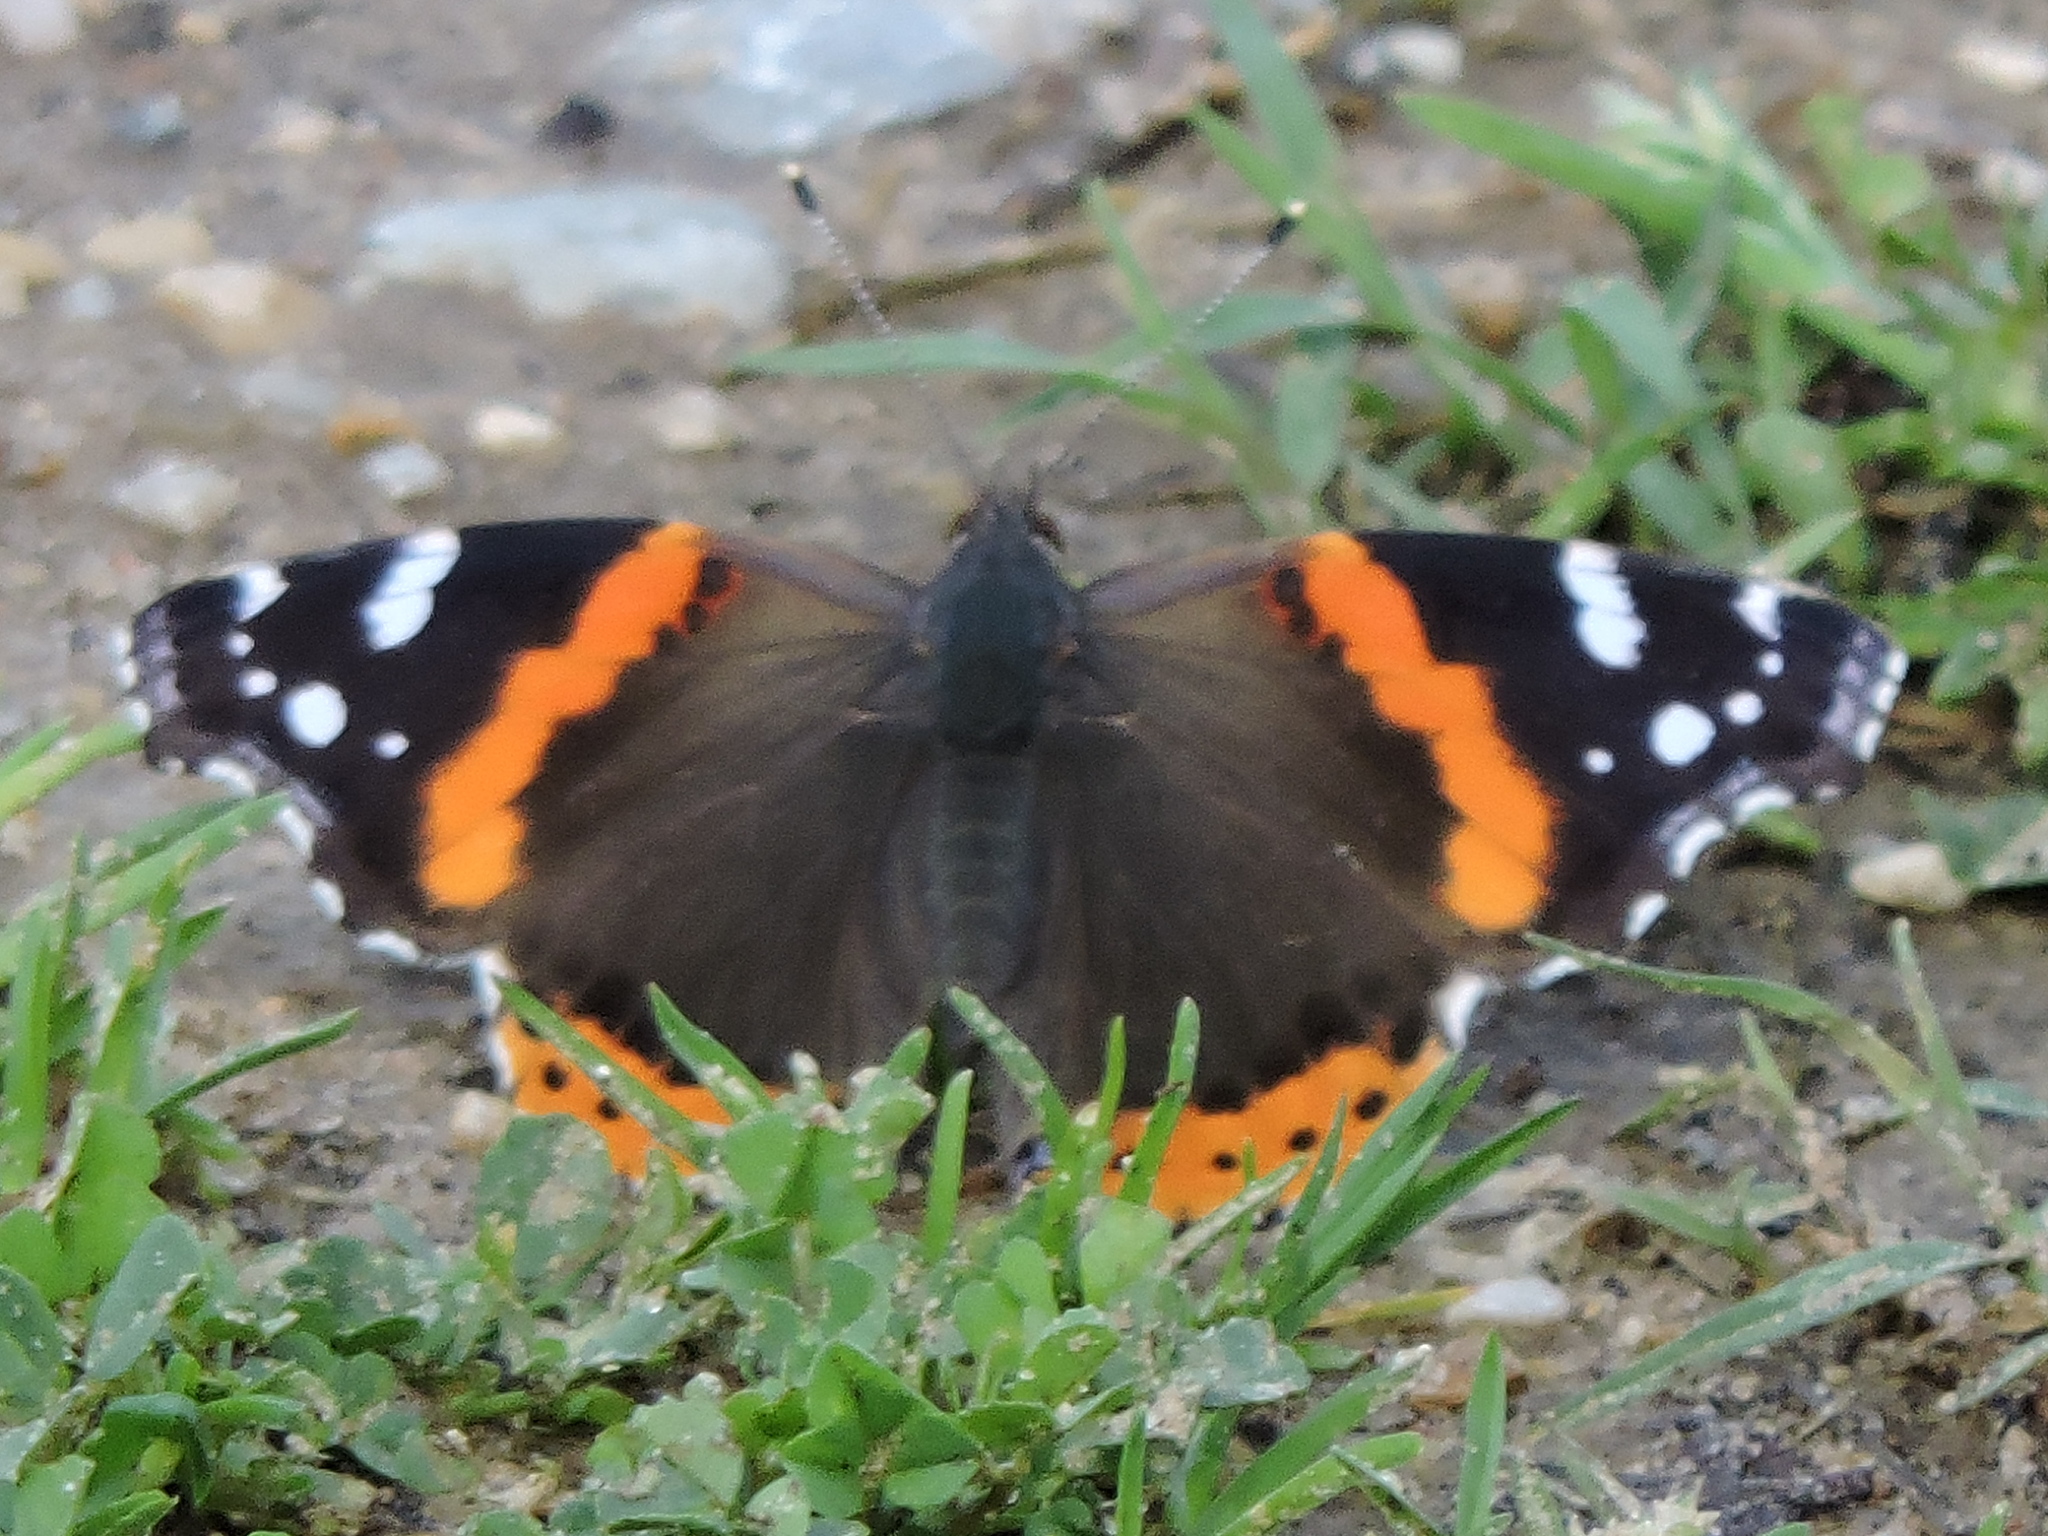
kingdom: Animalia
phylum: Arthropoda
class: Insecta
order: Lepidoptera
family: Nymphalidae
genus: Vanessa
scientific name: Vanessa atalanta
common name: Red admiral
